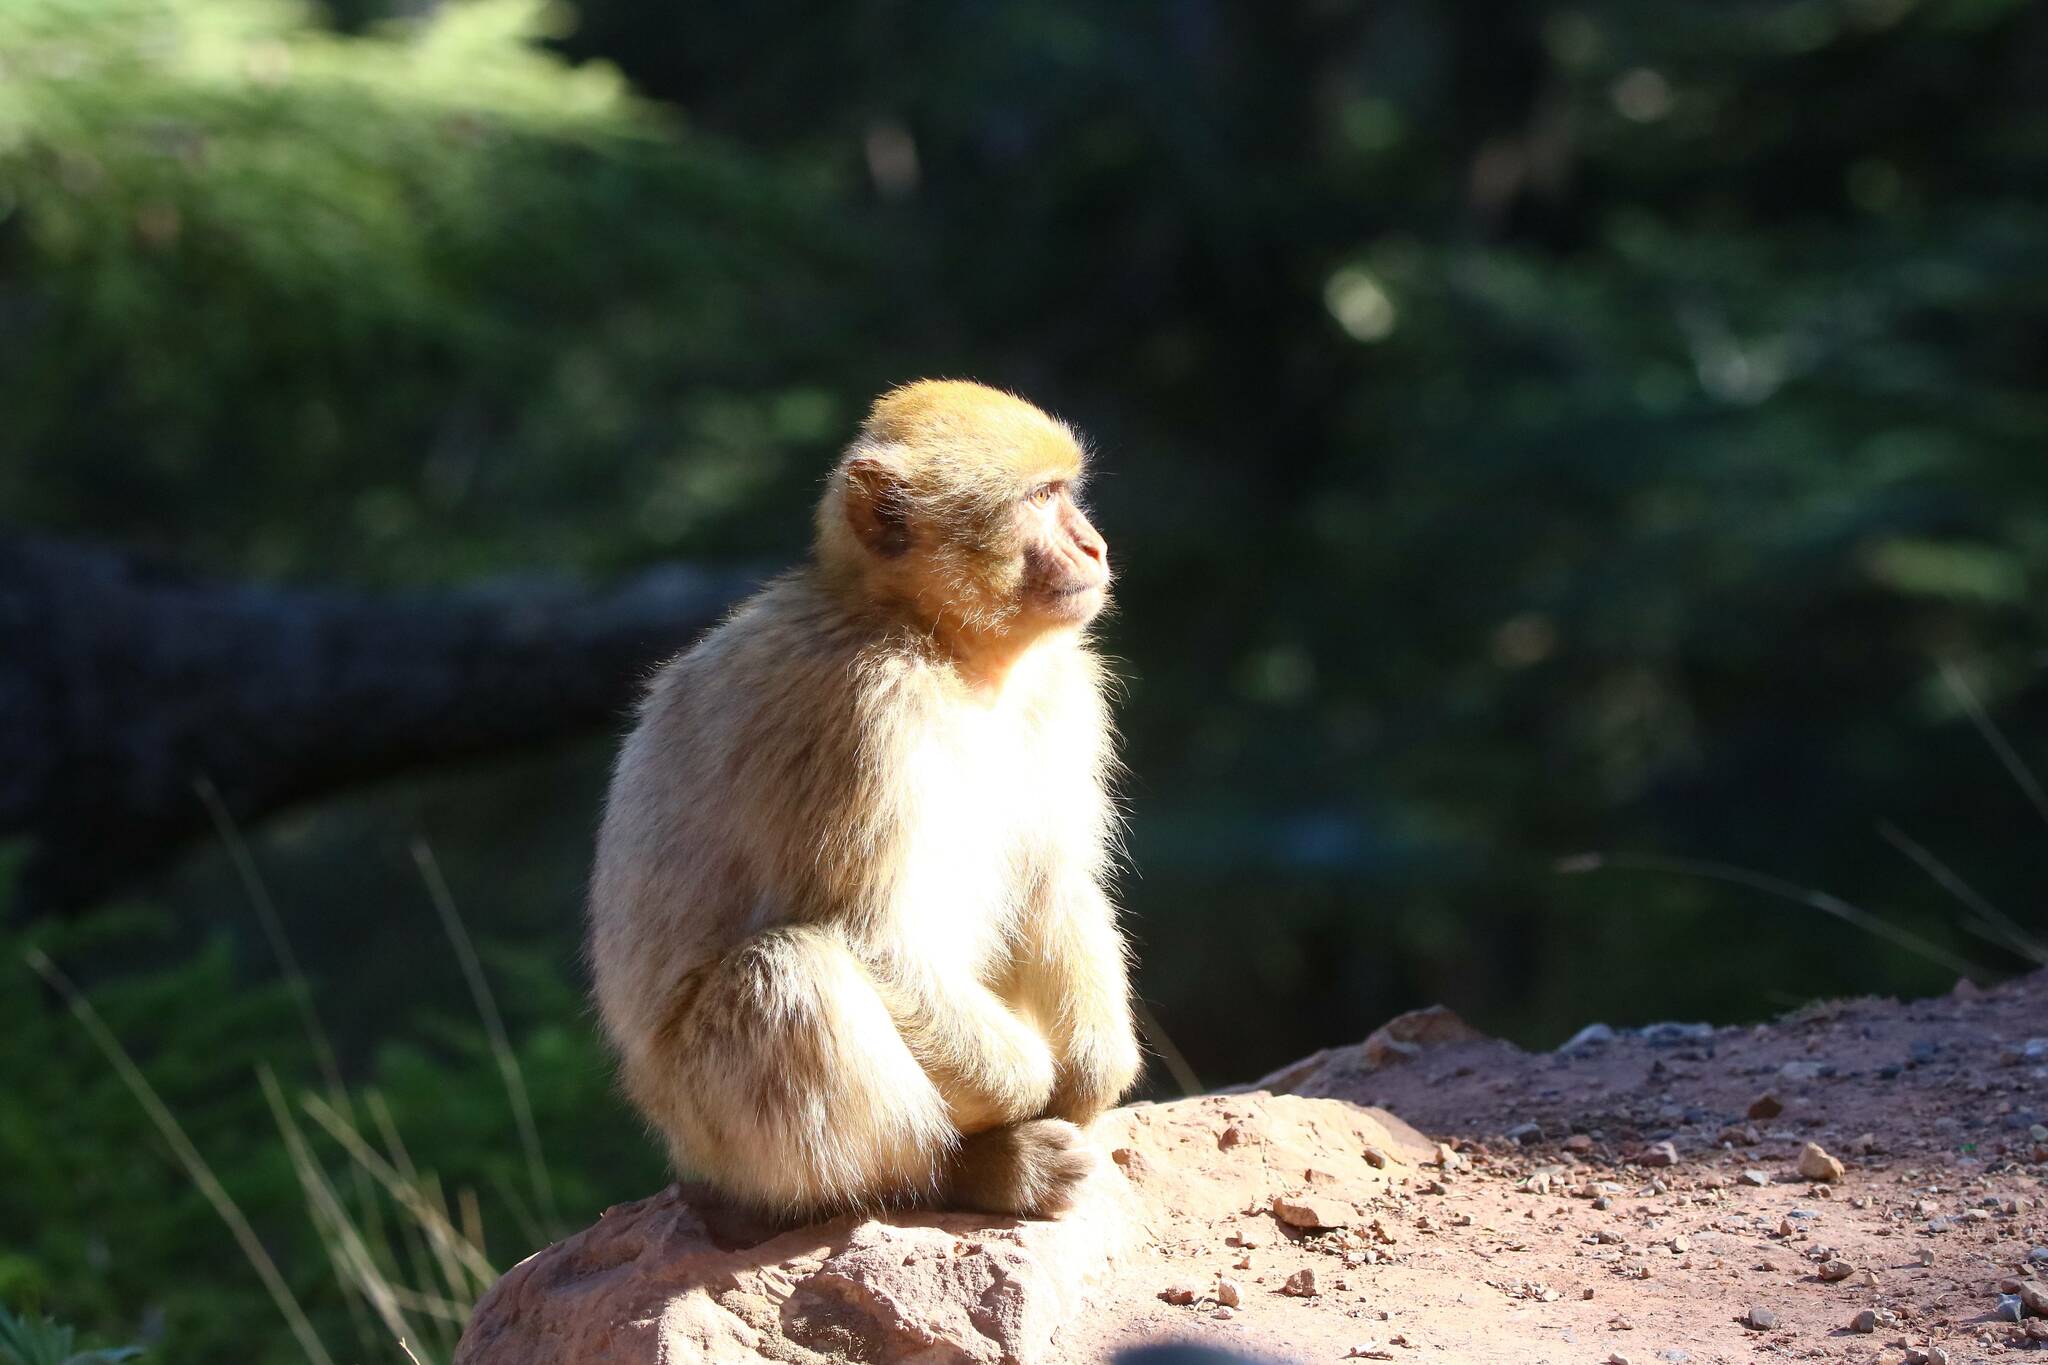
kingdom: Animalia
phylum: Chordata
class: Mammalia
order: Primates
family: Cercopithecidae
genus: Macaca
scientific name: Macaca sylvanus
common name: Barbary macaque
